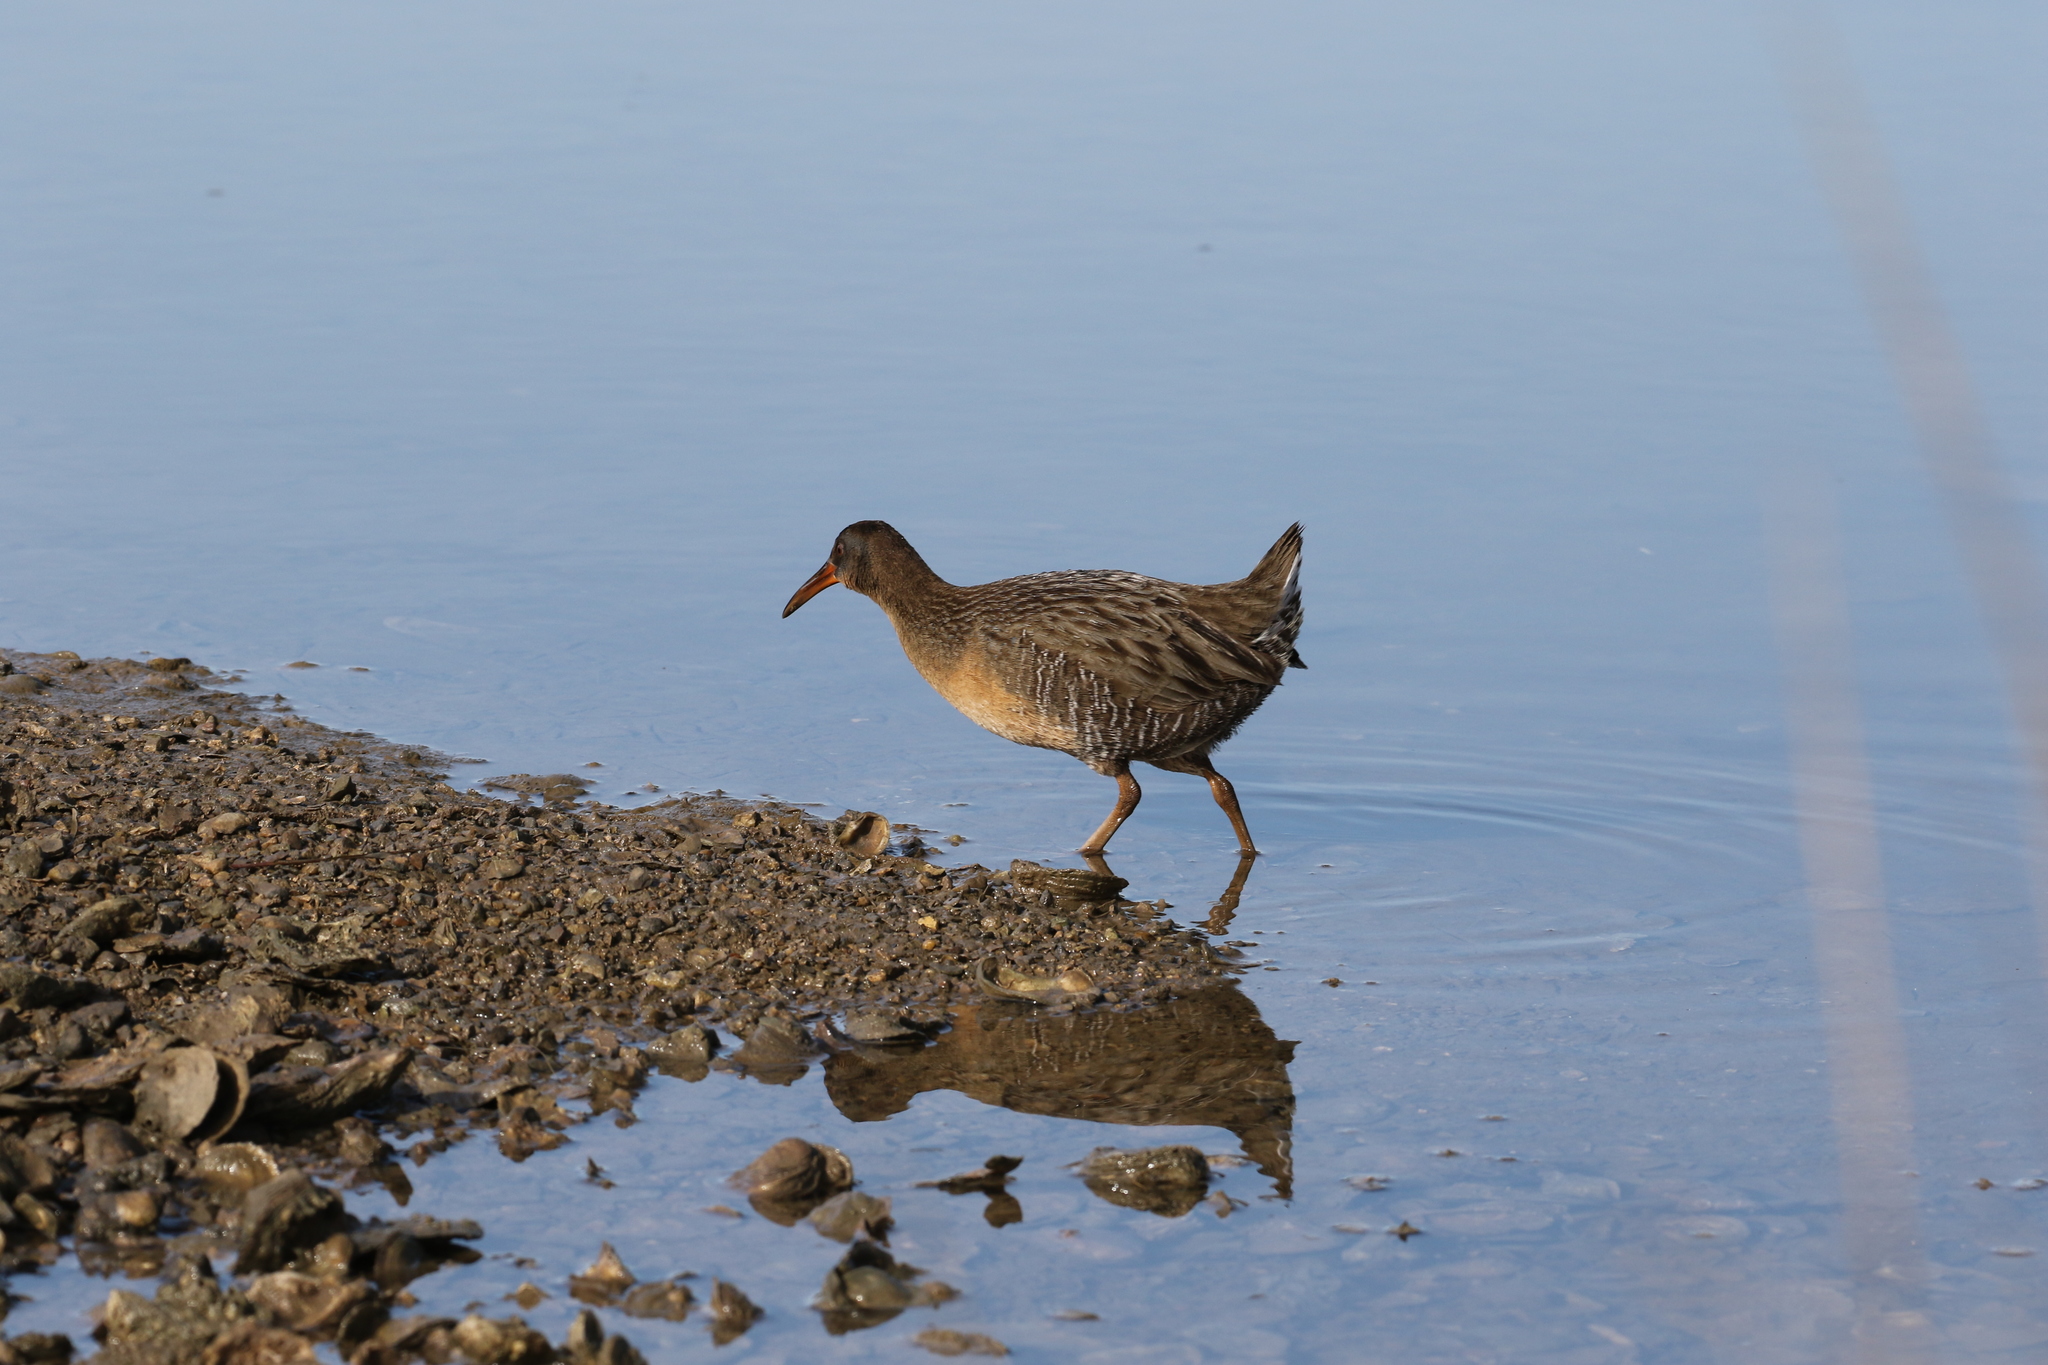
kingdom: Animalia
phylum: Chordata
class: Aves
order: Gruiformes
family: Rallidae
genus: Rallus
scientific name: Rallus crepitans
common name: Clapper rail
